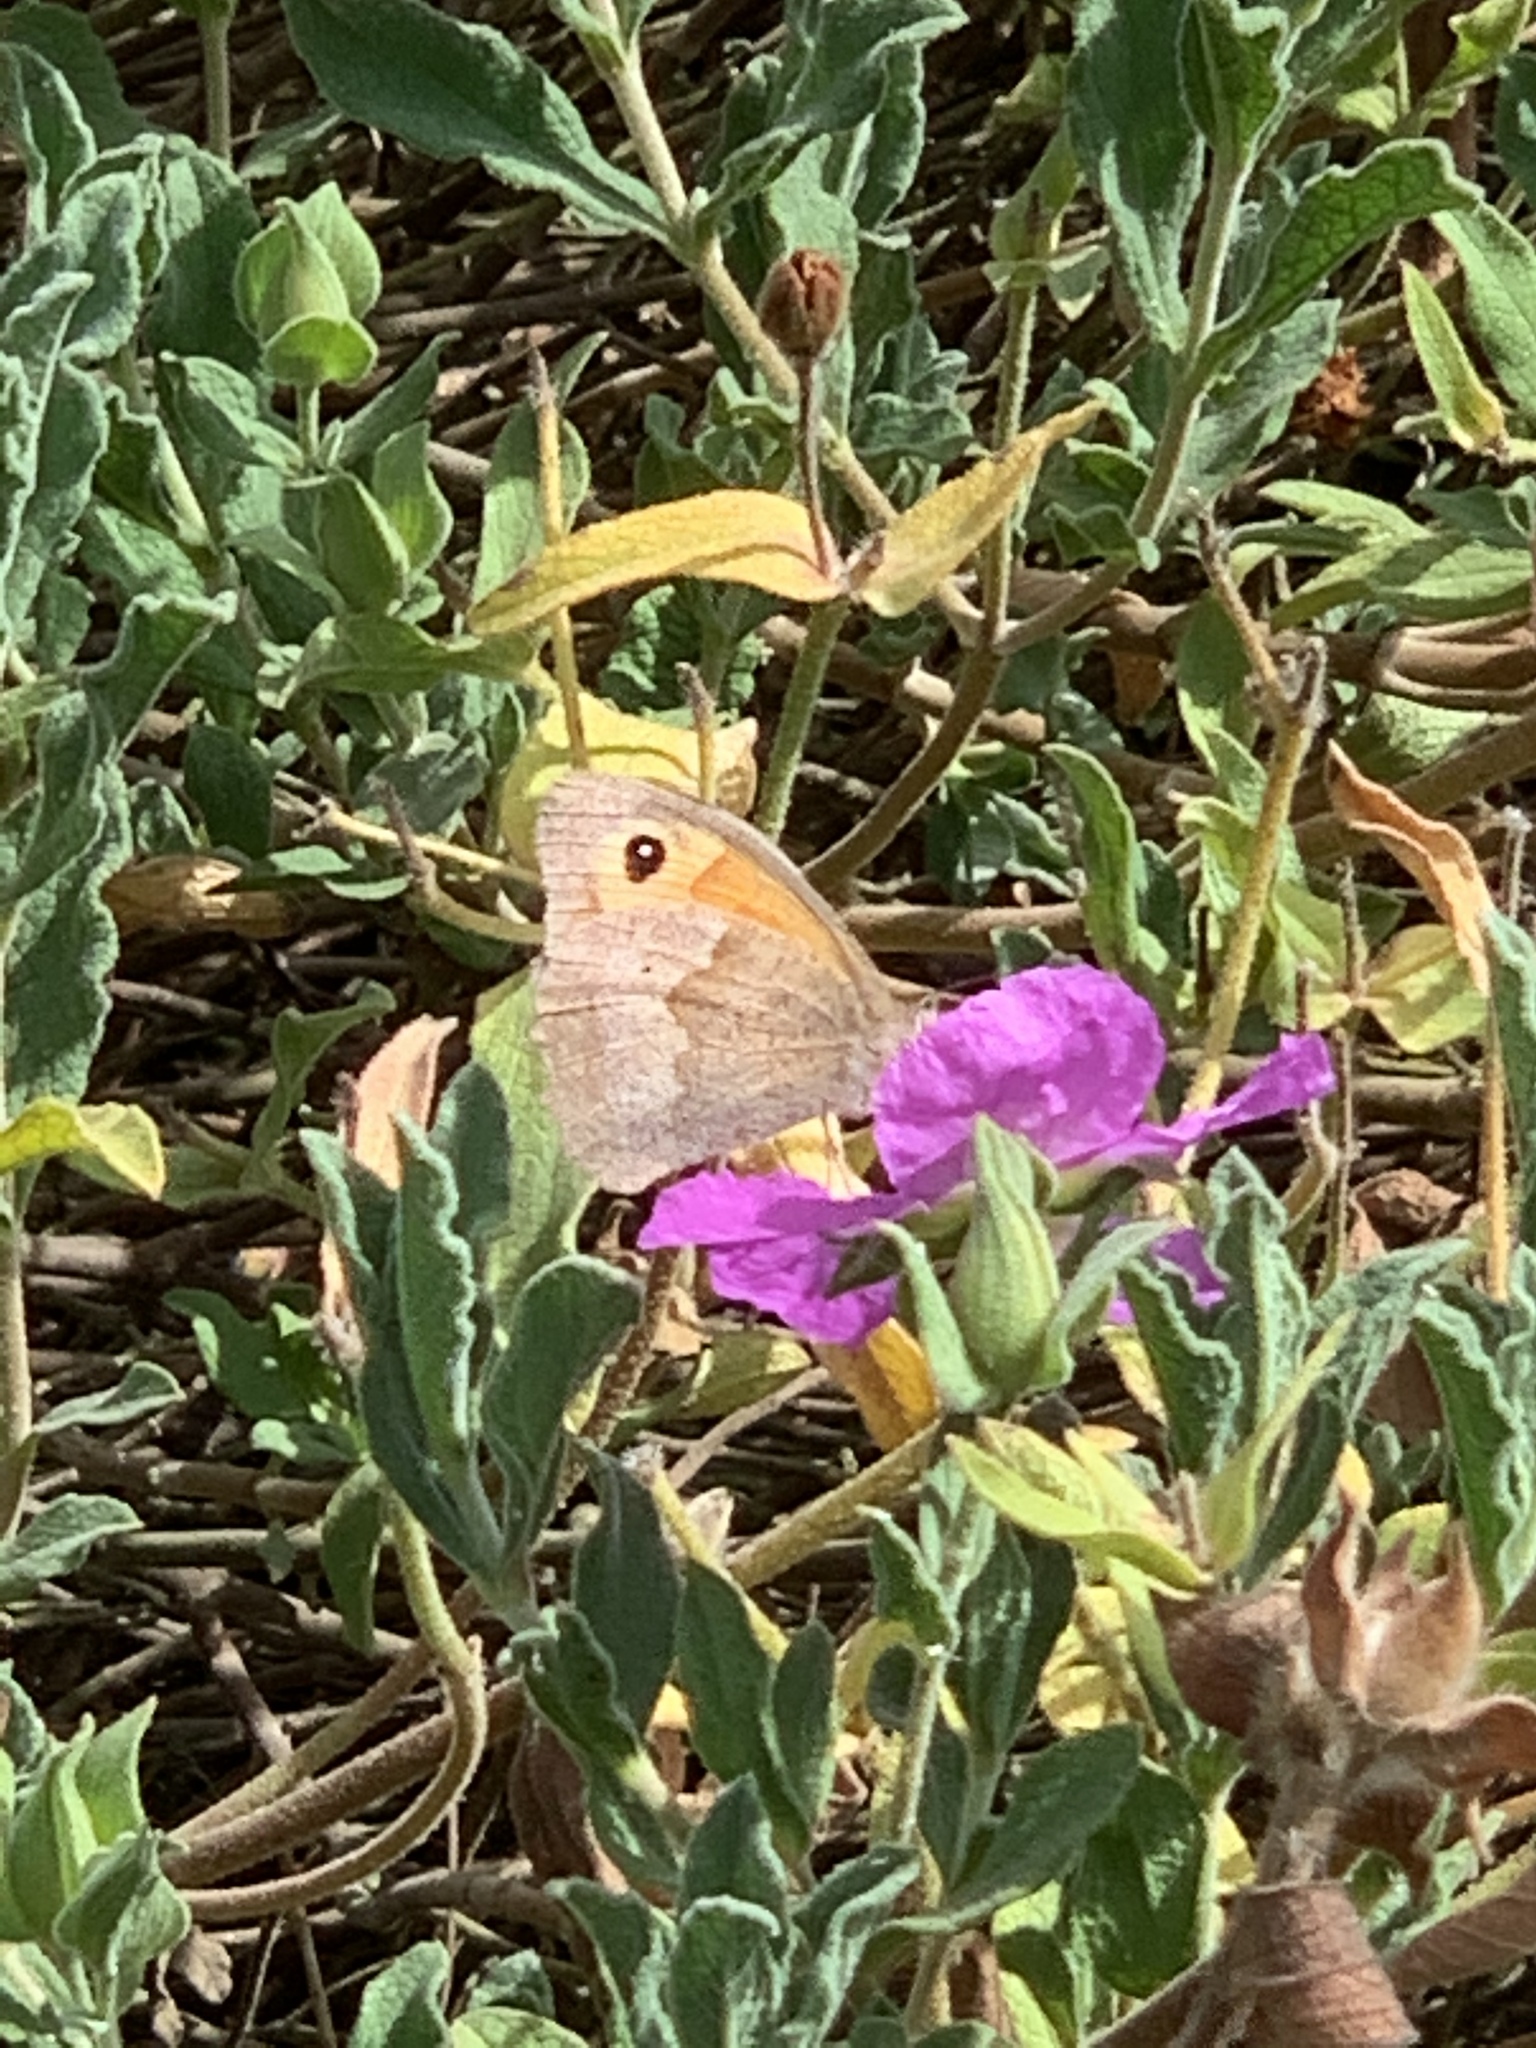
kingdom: Animalia
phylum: Arthropoda
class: Insecta
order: Lepidoptera
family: Nymphalidae
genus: Maniola
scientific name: Maniola jurtina
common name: Meadow brown
